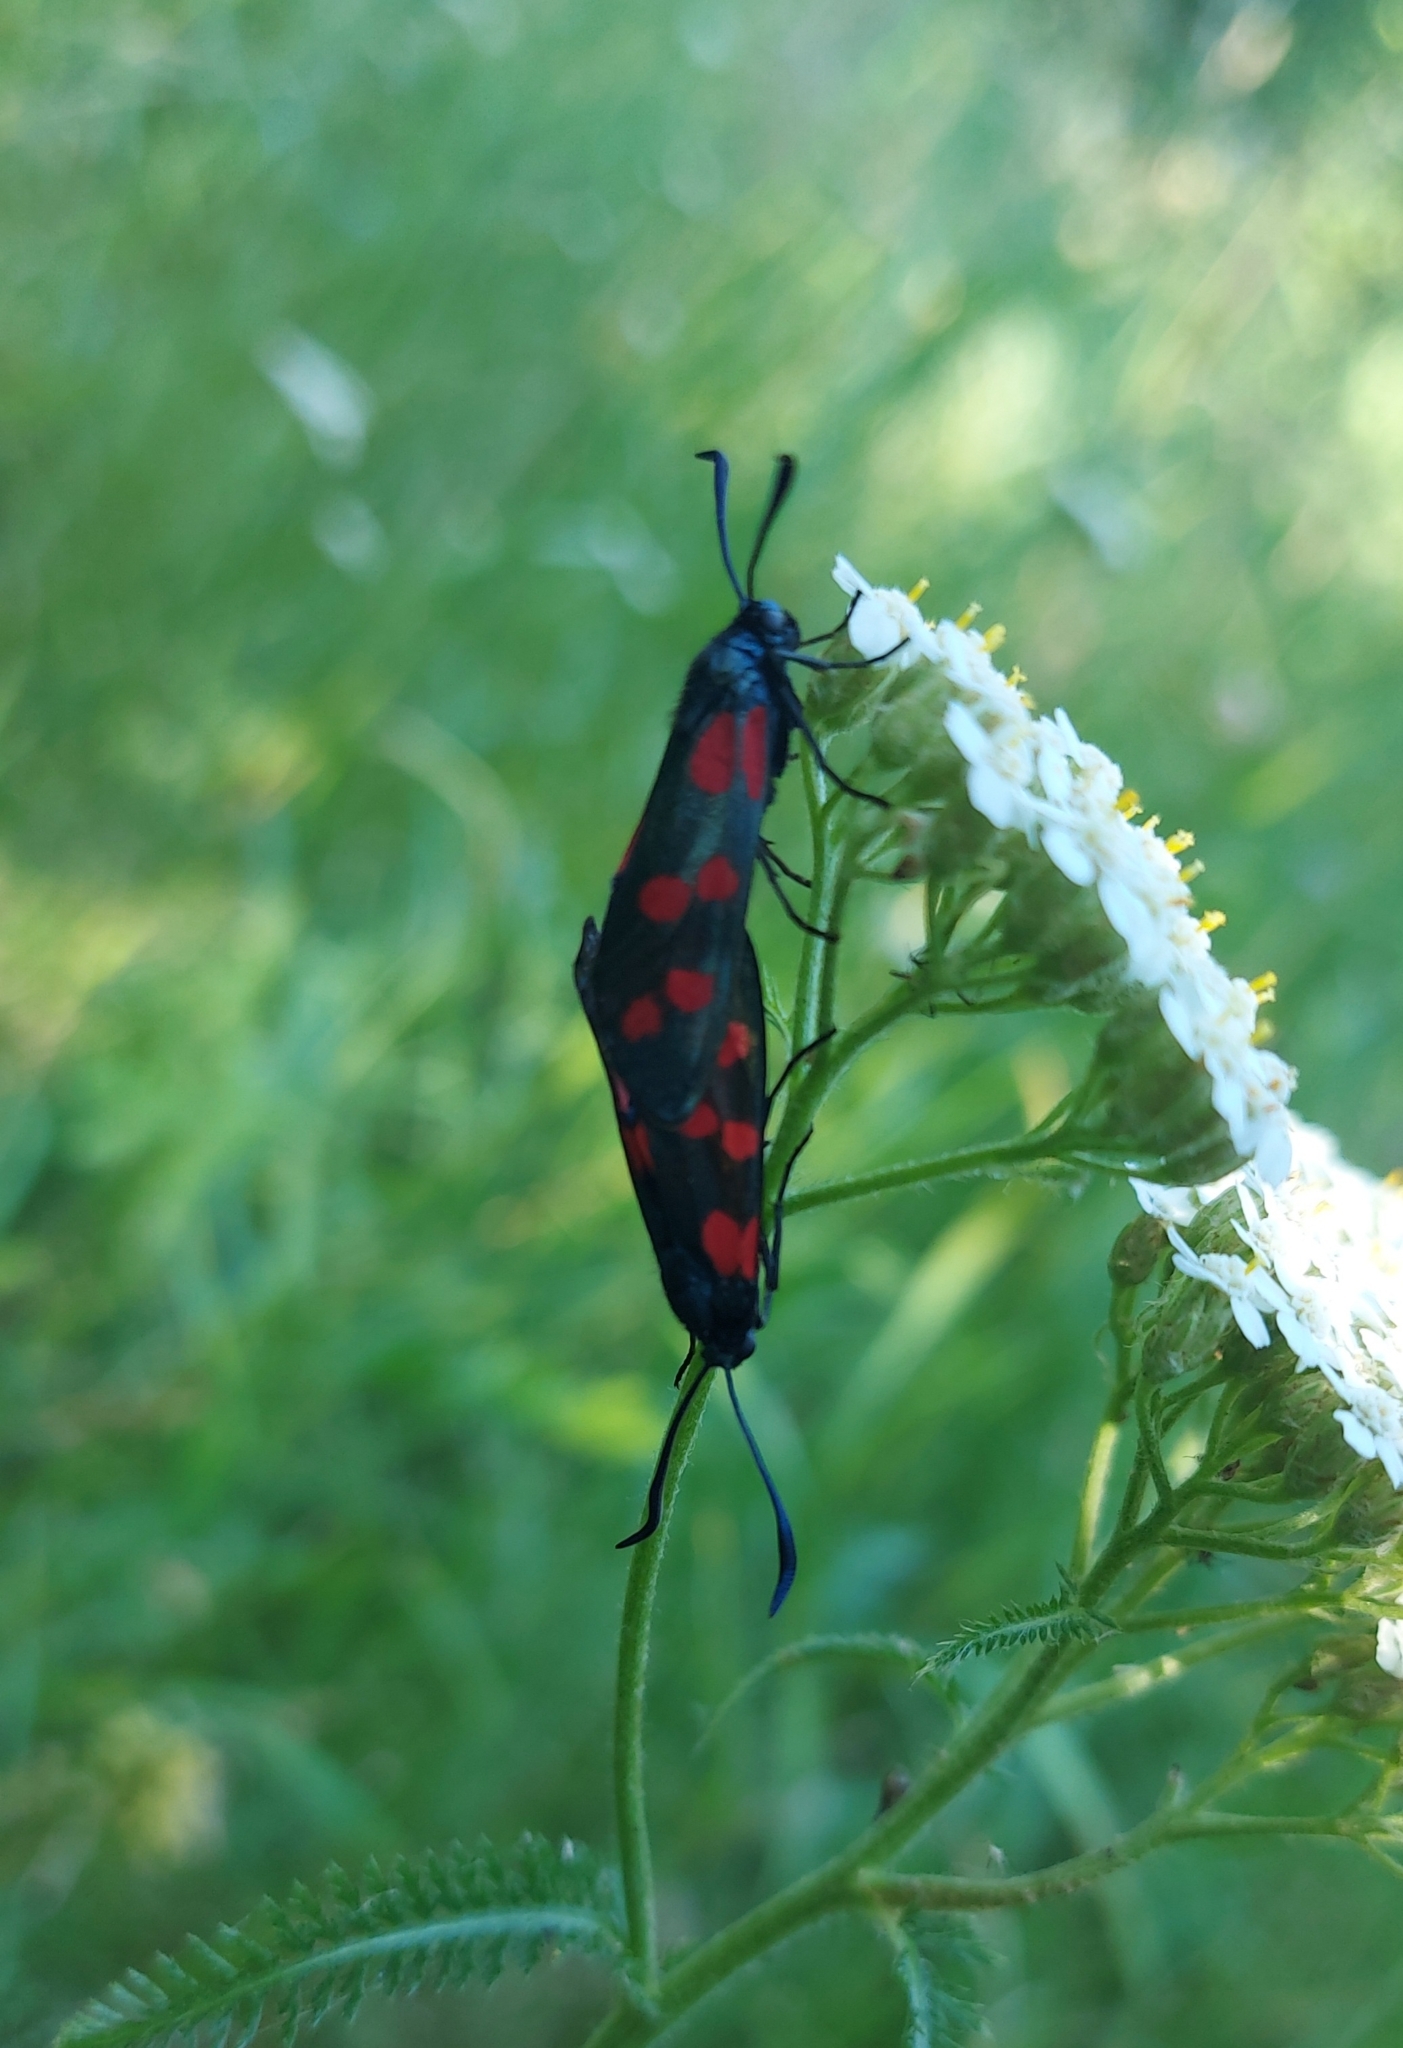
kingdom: Animalia
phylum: Arthropoda
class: Insecta
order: Lepidoptera
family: Zygaenidae
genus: Zygaena
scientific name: Zygaena filipendulae
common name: Six-spot burnet
